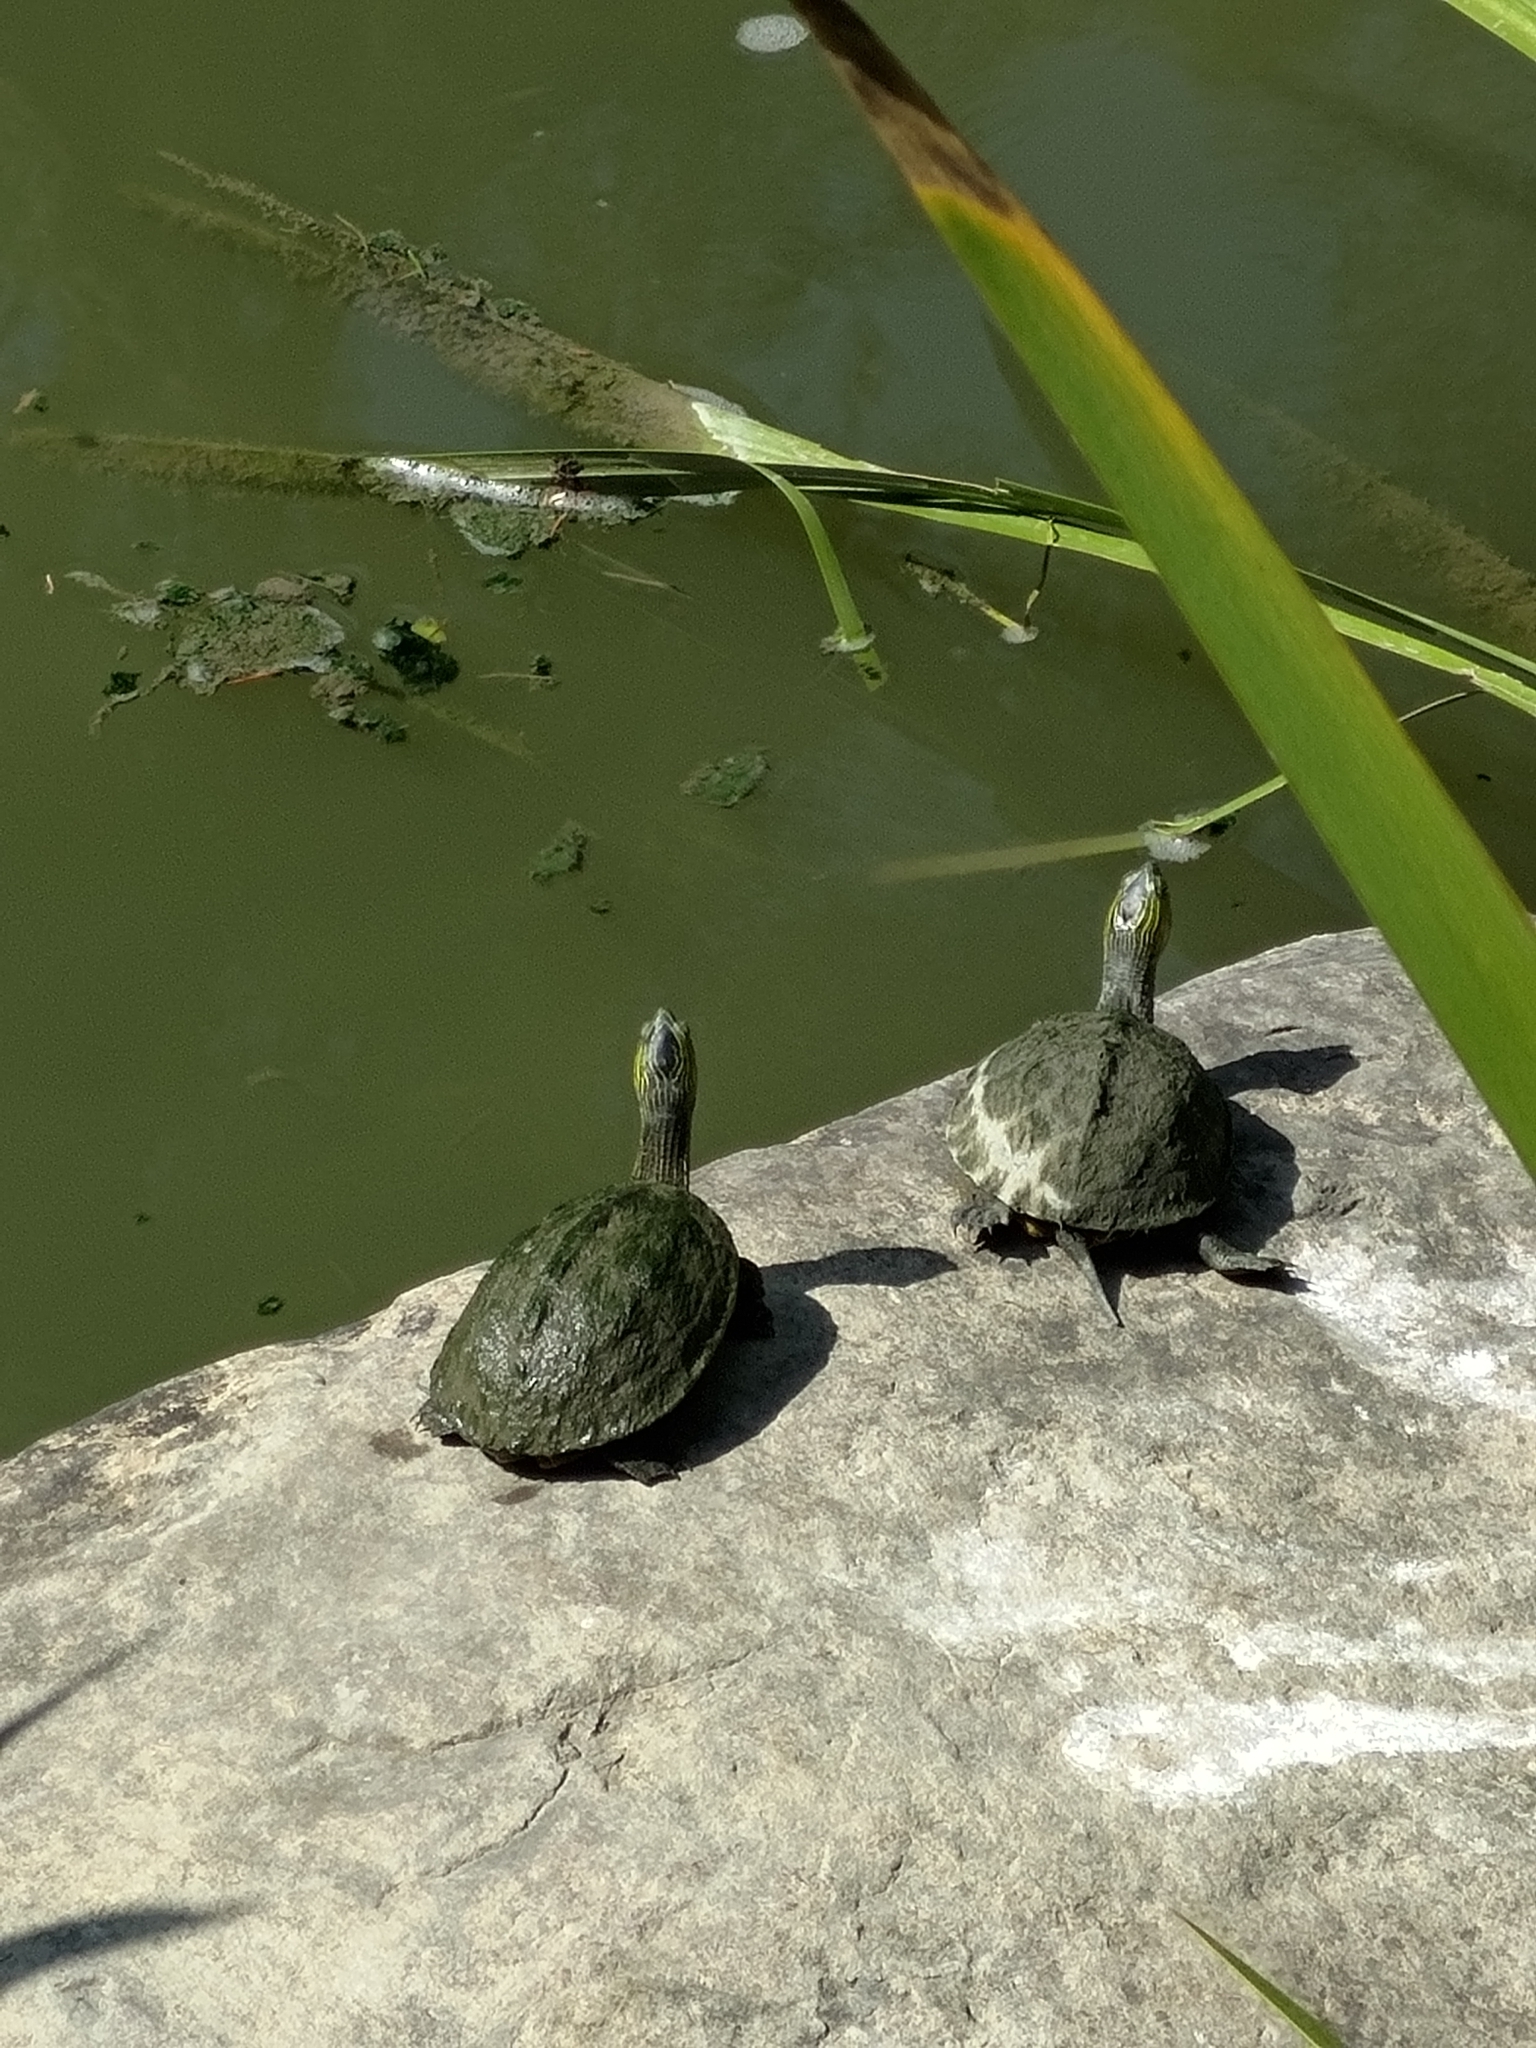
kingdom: Animalia
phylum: Chordata
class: Testudines
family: Geoemydidae
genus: Mauremys
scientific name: Mauremys sinensis
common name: Chinese stripe-necked turtle
